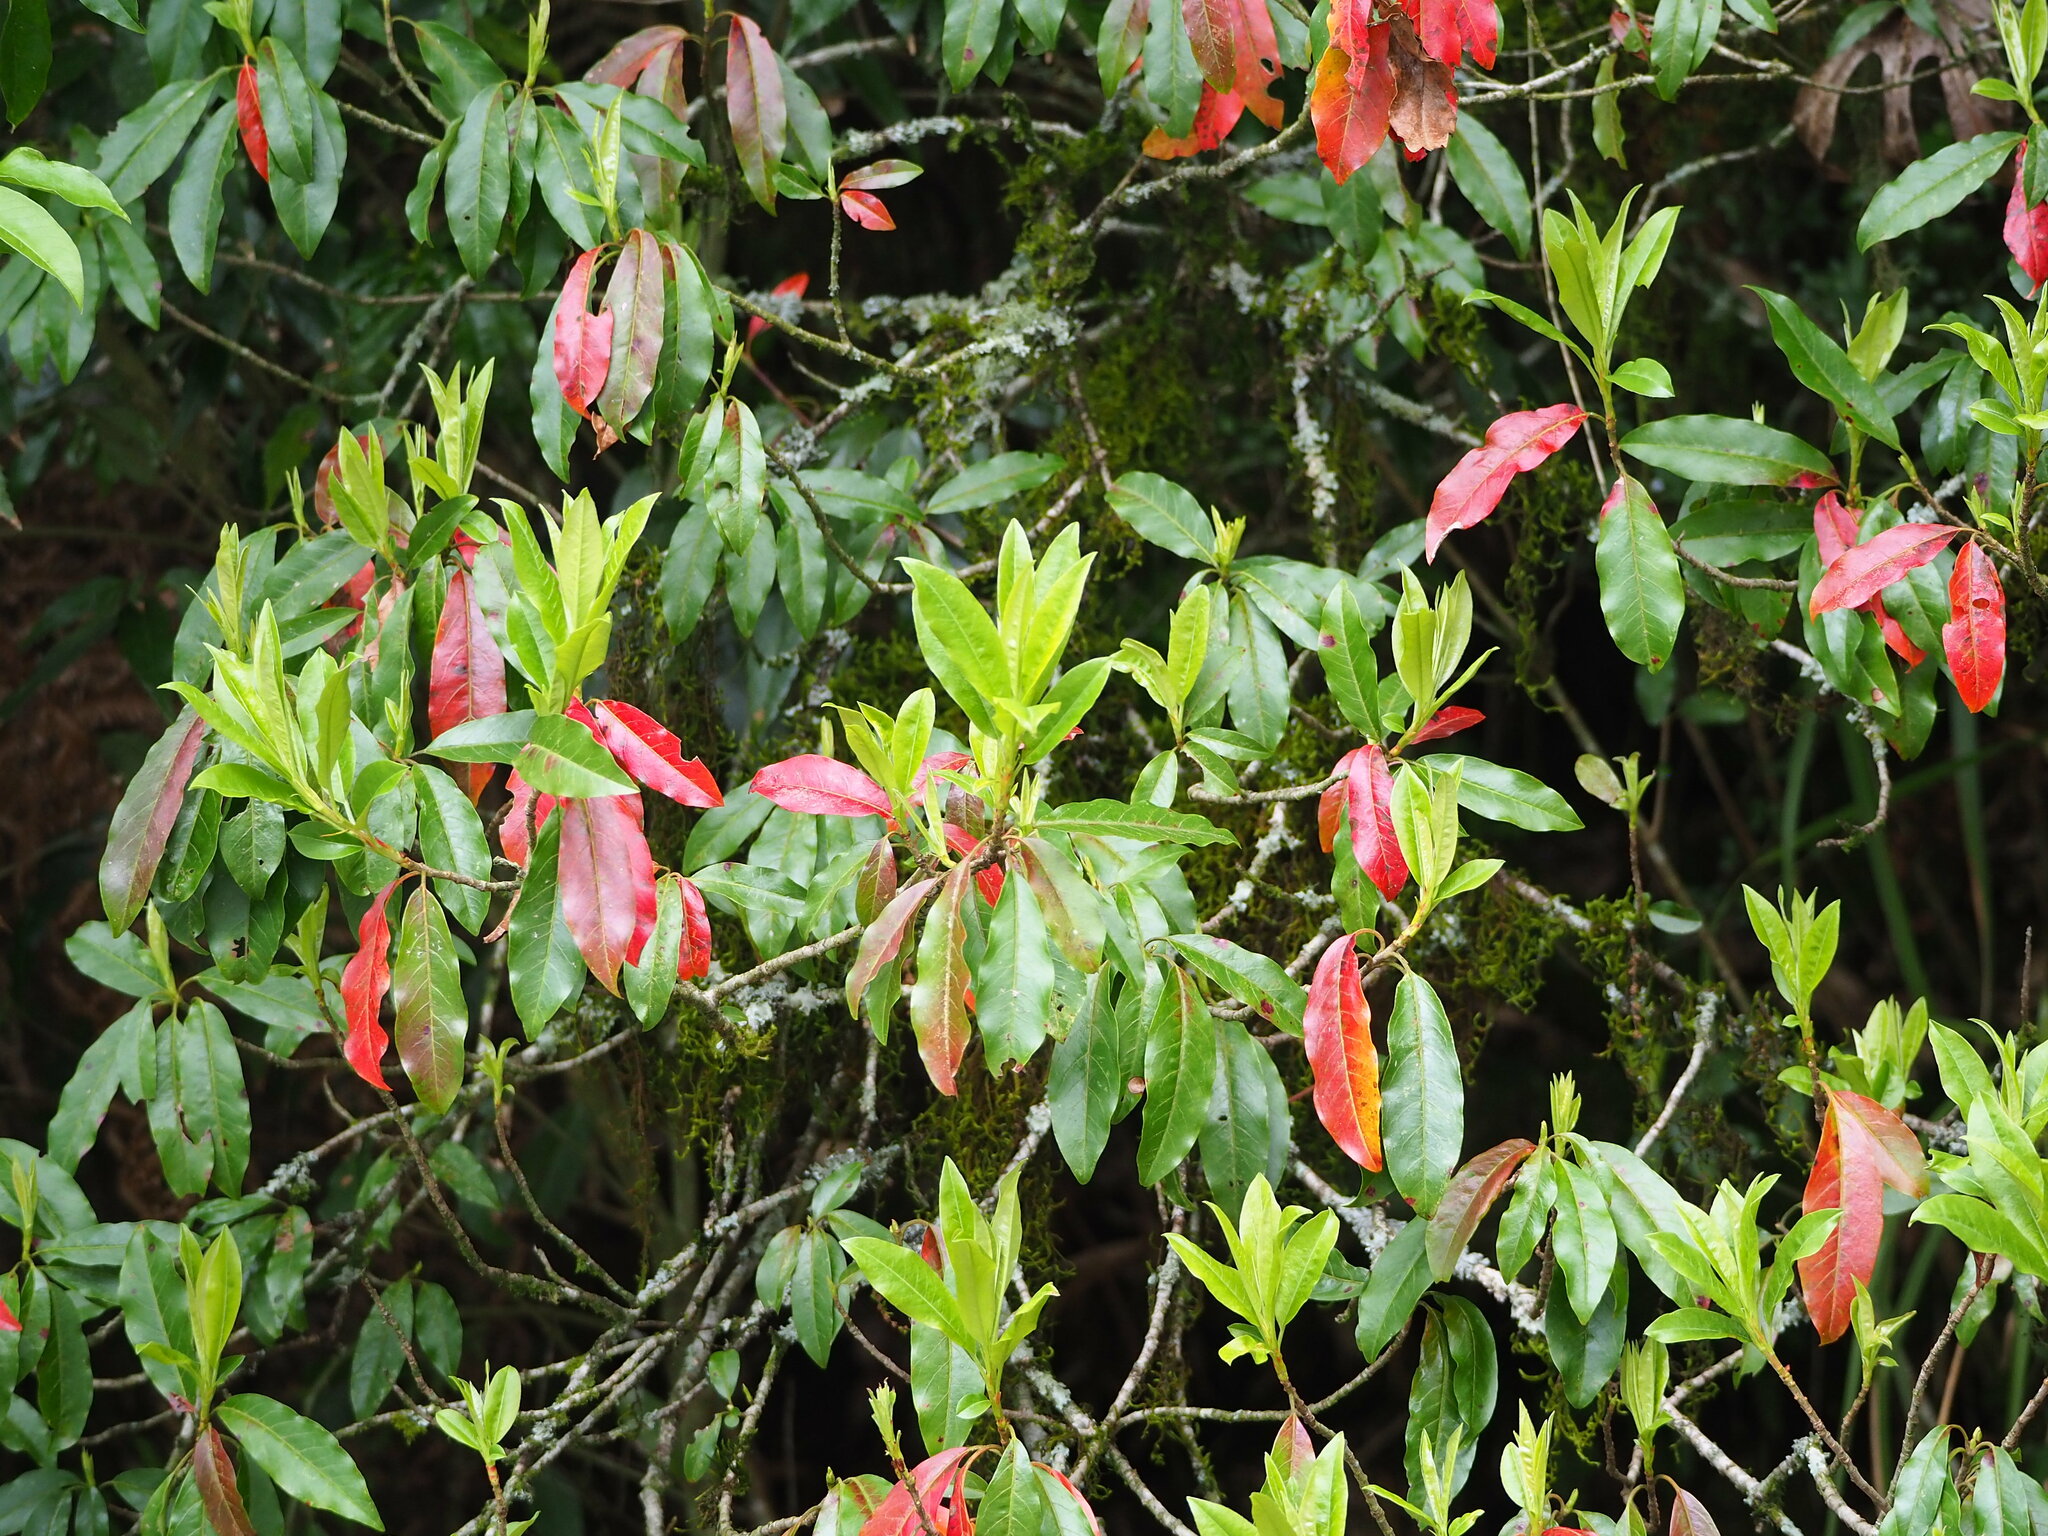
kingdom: Plantae
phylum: Tracheophyta
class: Magnoliopsida
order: Rosales
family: Rosaceae
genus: Stranvaesia
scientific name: Stranvaesia davidiana
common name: Chinese photinia
